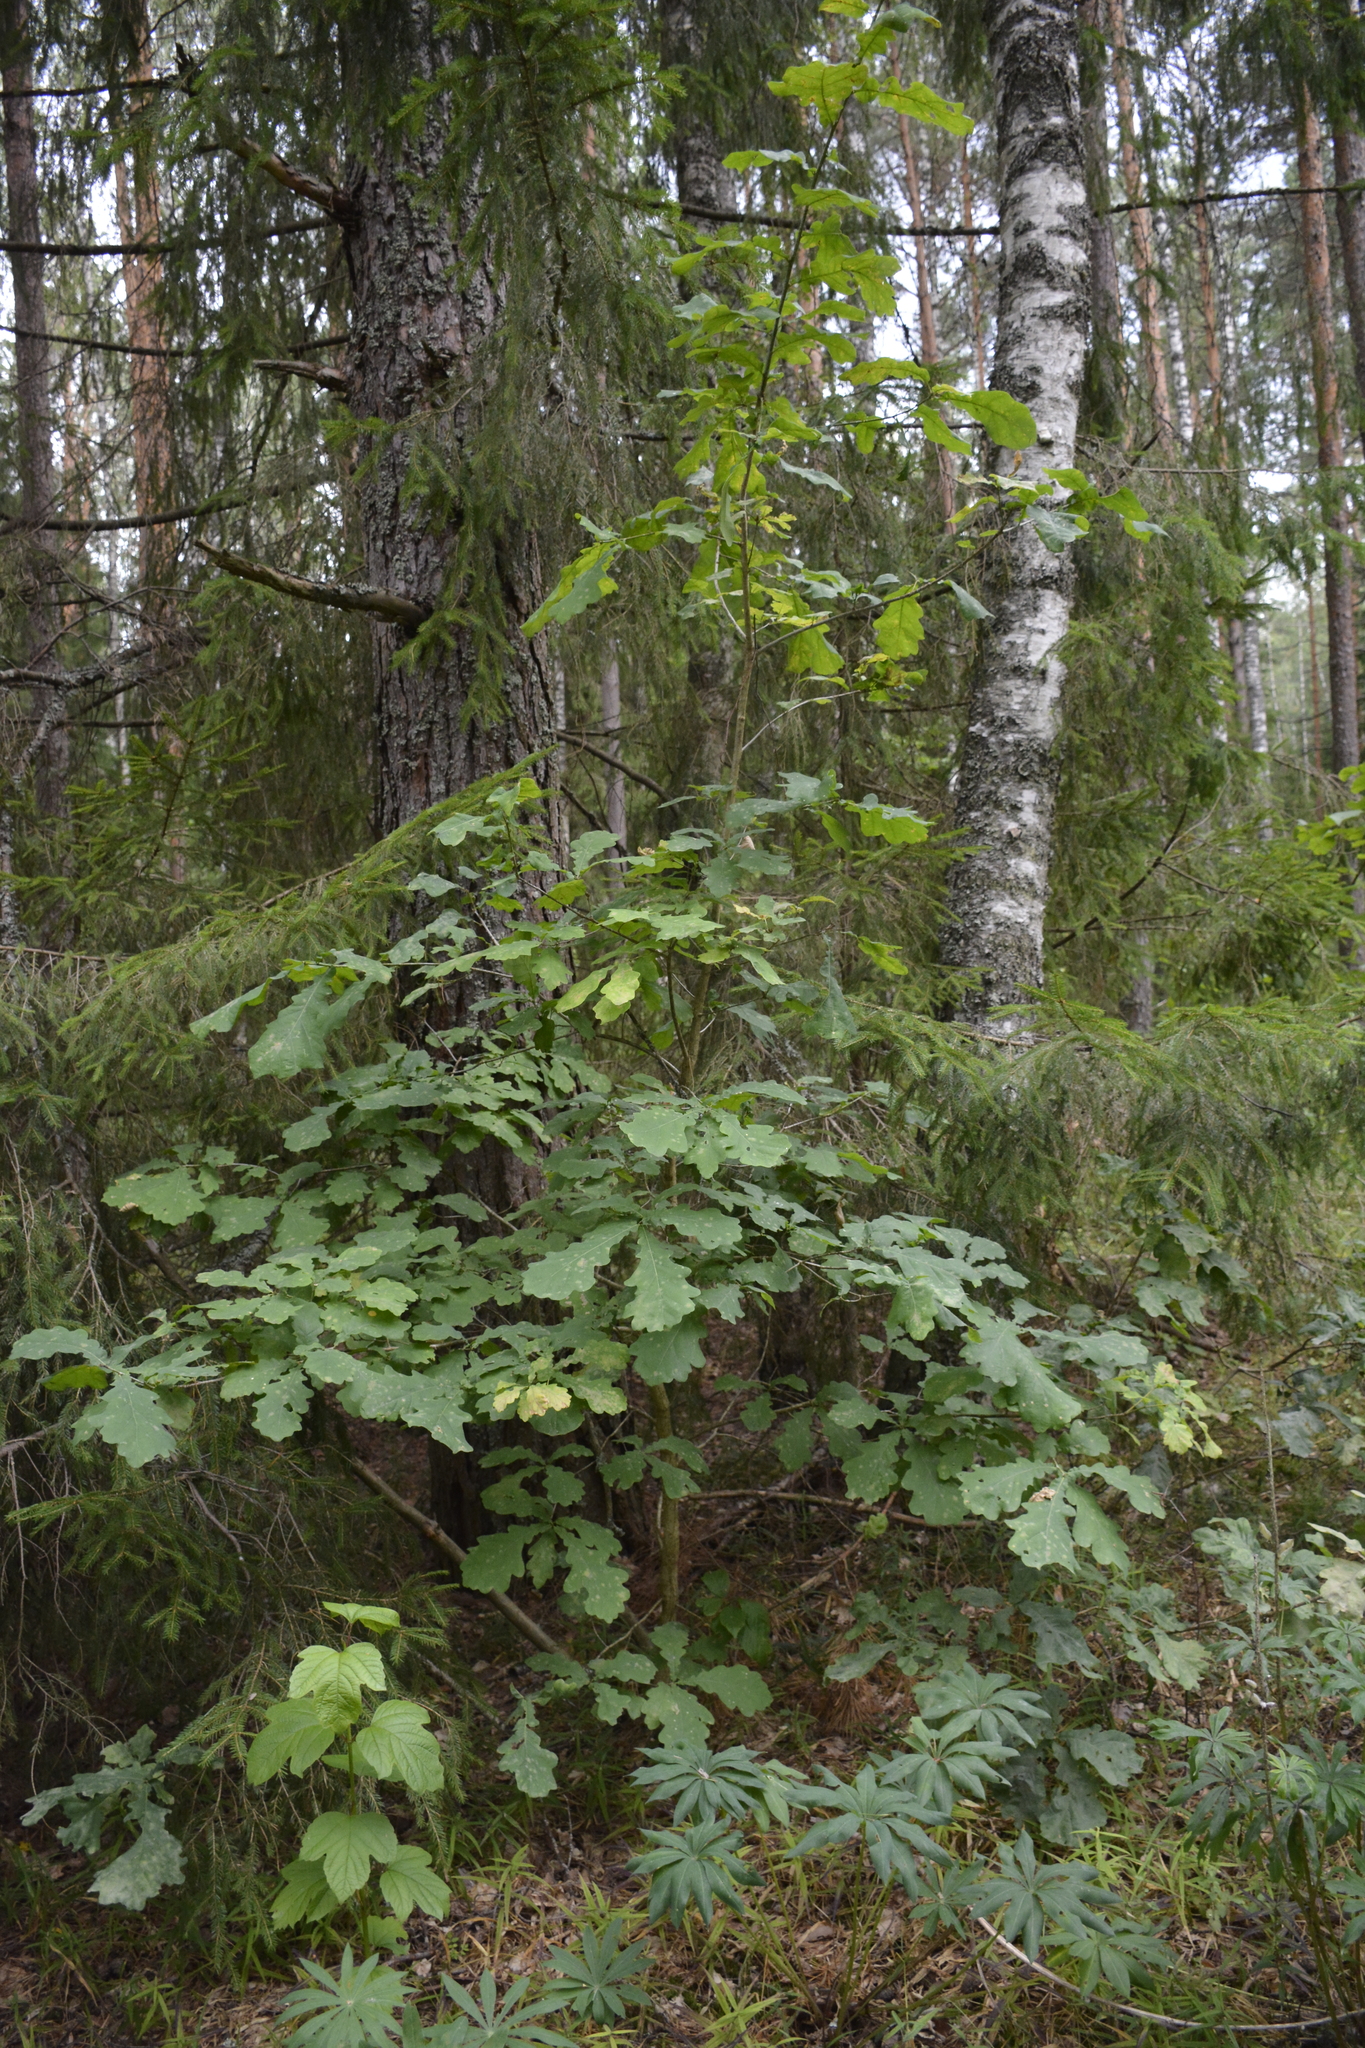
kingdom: Plantae
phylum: Tracheophyta
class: Magnoliopsida
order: Fagales
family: Fagaceae
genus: Quercus
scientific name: Quercus robur
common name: Pedunculate oak
